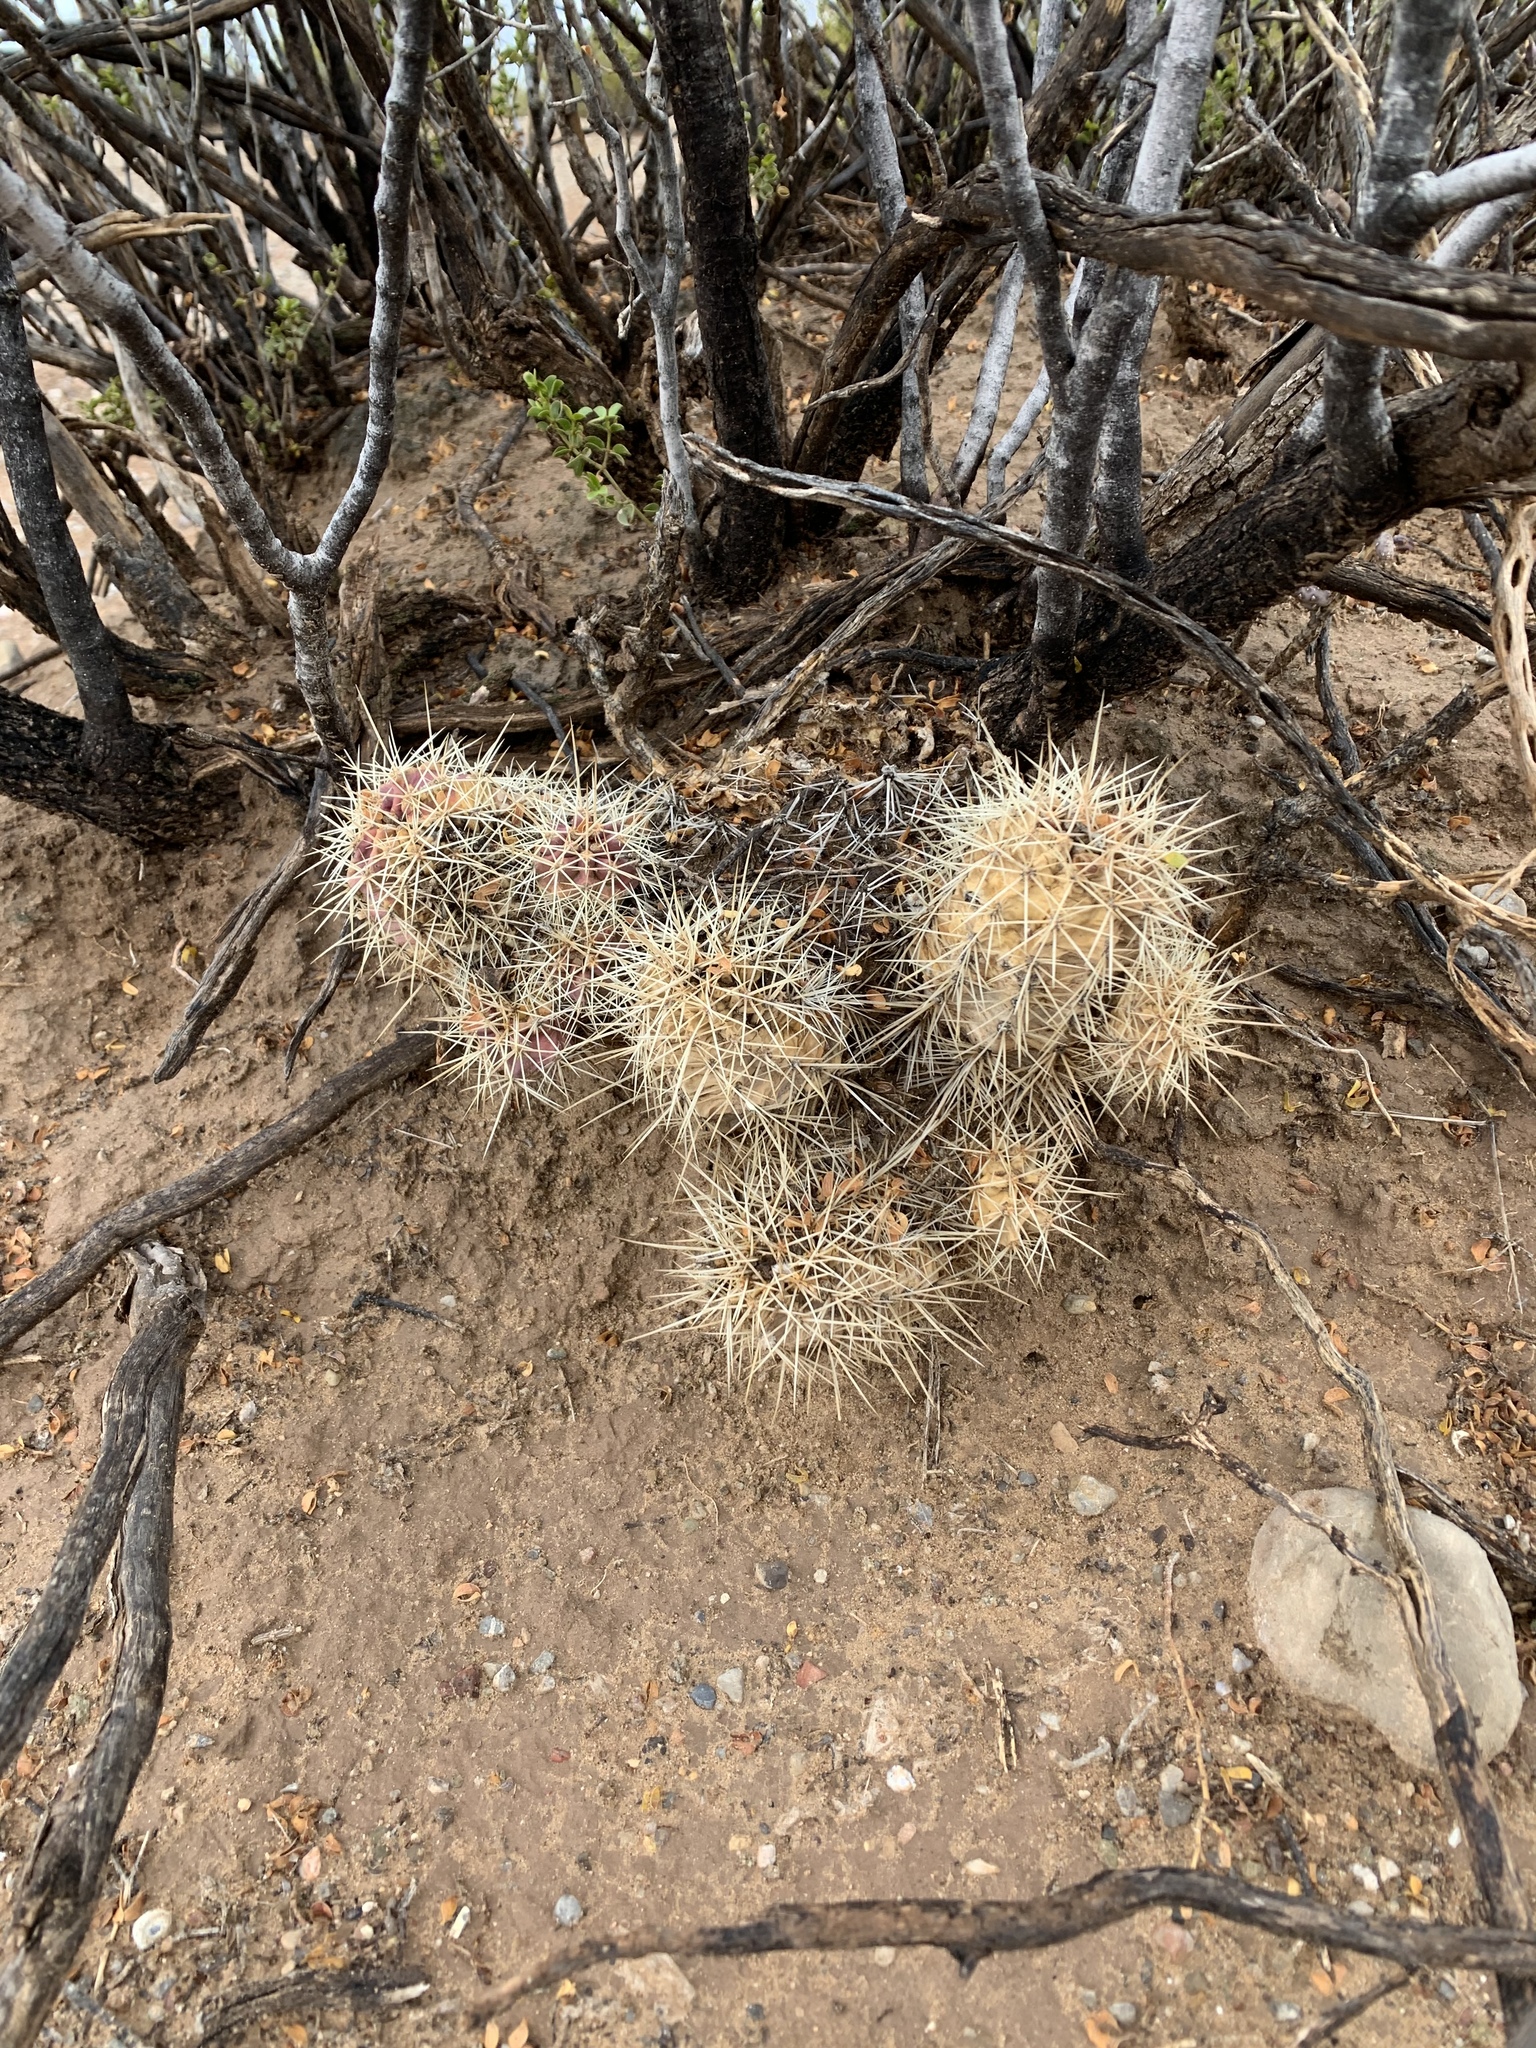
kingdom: Plantae
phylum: Tracheophyta
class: Magnoliopsida
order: Caryophyllales
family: Cactaceae
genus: Echinocereus
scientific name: Echinocereus coccineus
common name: Scarlet hedgehog cactus
